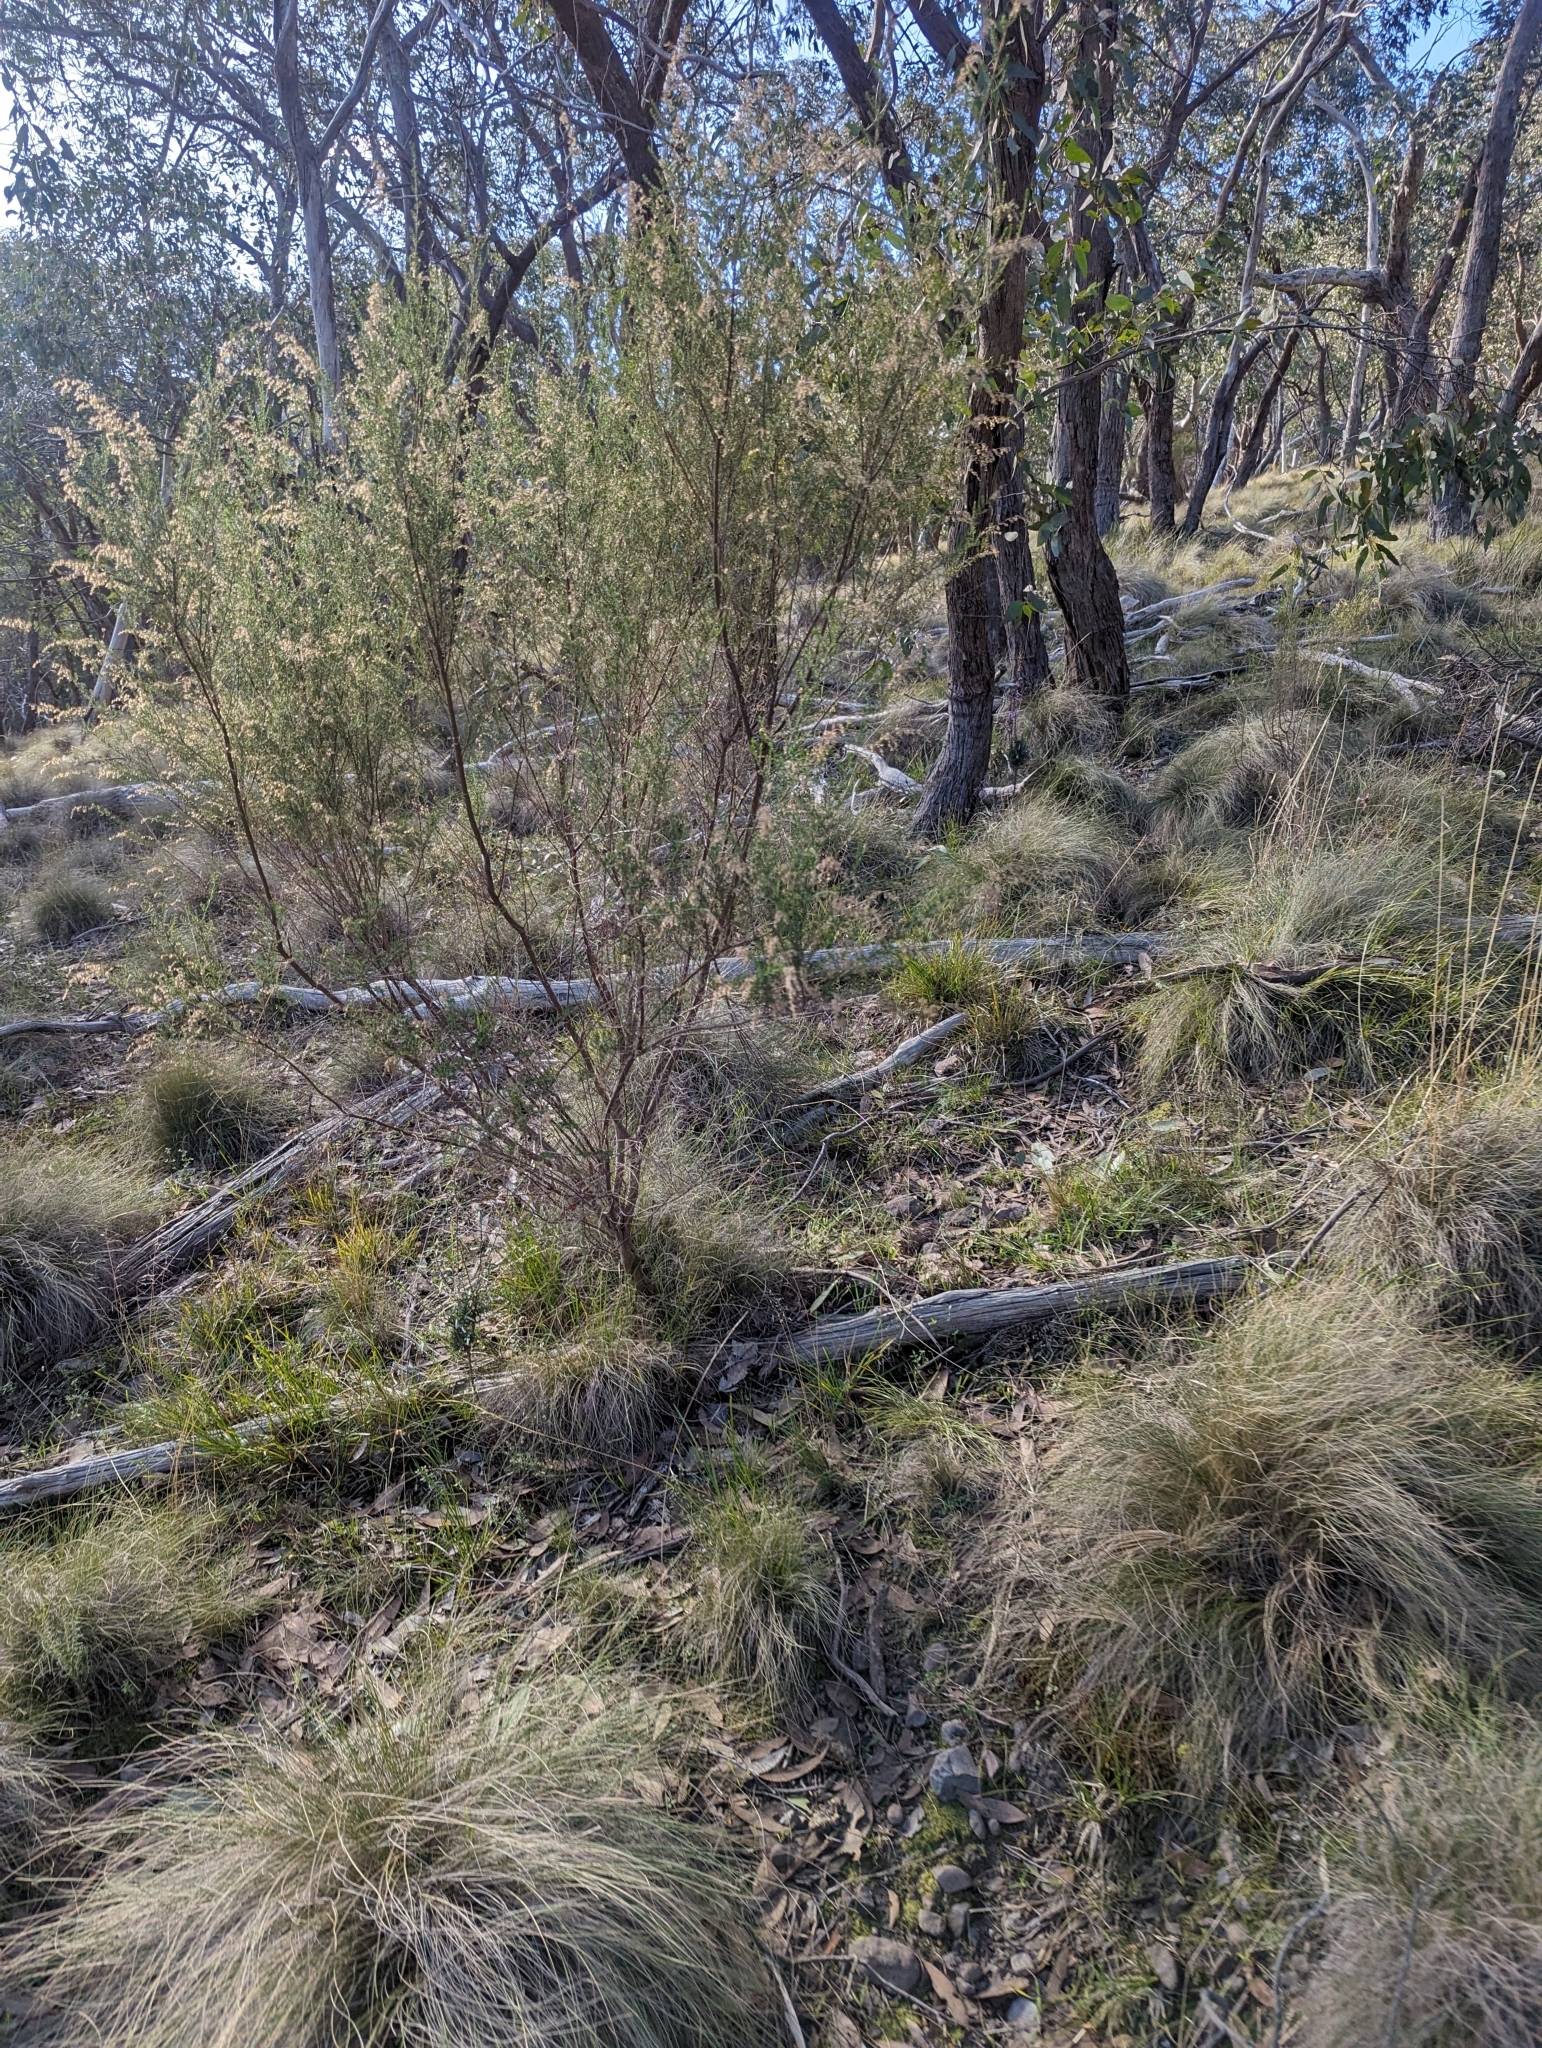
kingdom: Plantae
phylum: Tracheophyta
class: Magnoliopsida
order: Asterales
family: Asteraceae
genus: Cassinia
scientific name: Cassinia sifton
